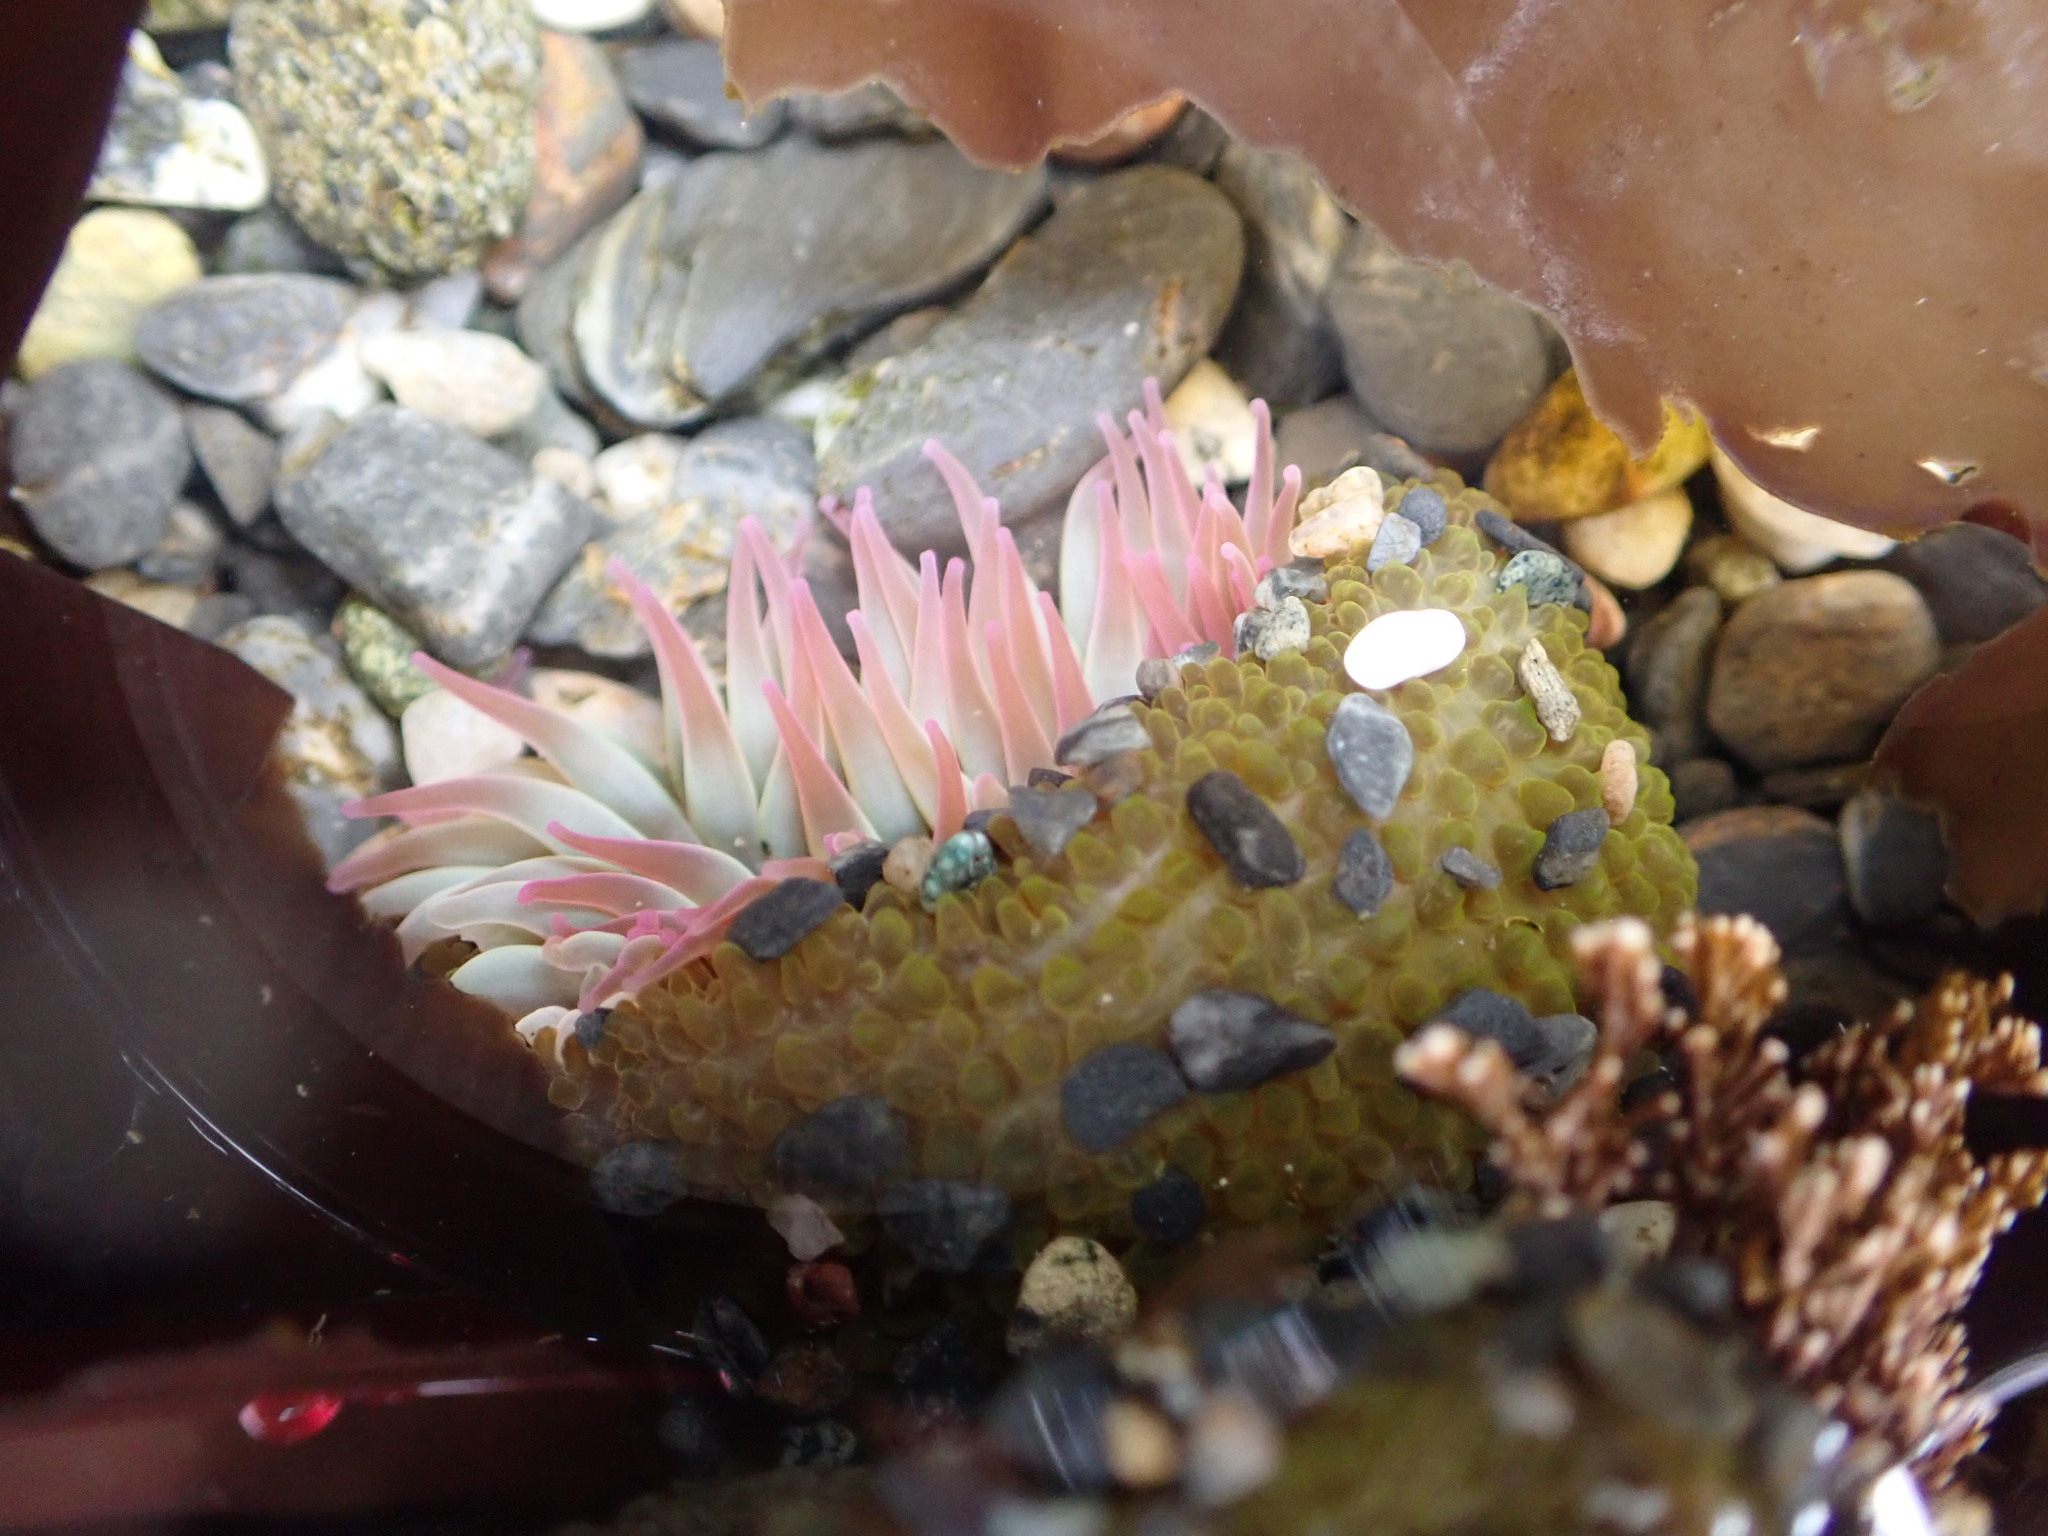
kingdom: Animalia
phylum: Cnidaria
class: Anthozoa
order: Actiniaria
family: Actiniidae
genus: Anthopleura
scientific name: Anthopleura elegantissima
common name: Clonal anemone
